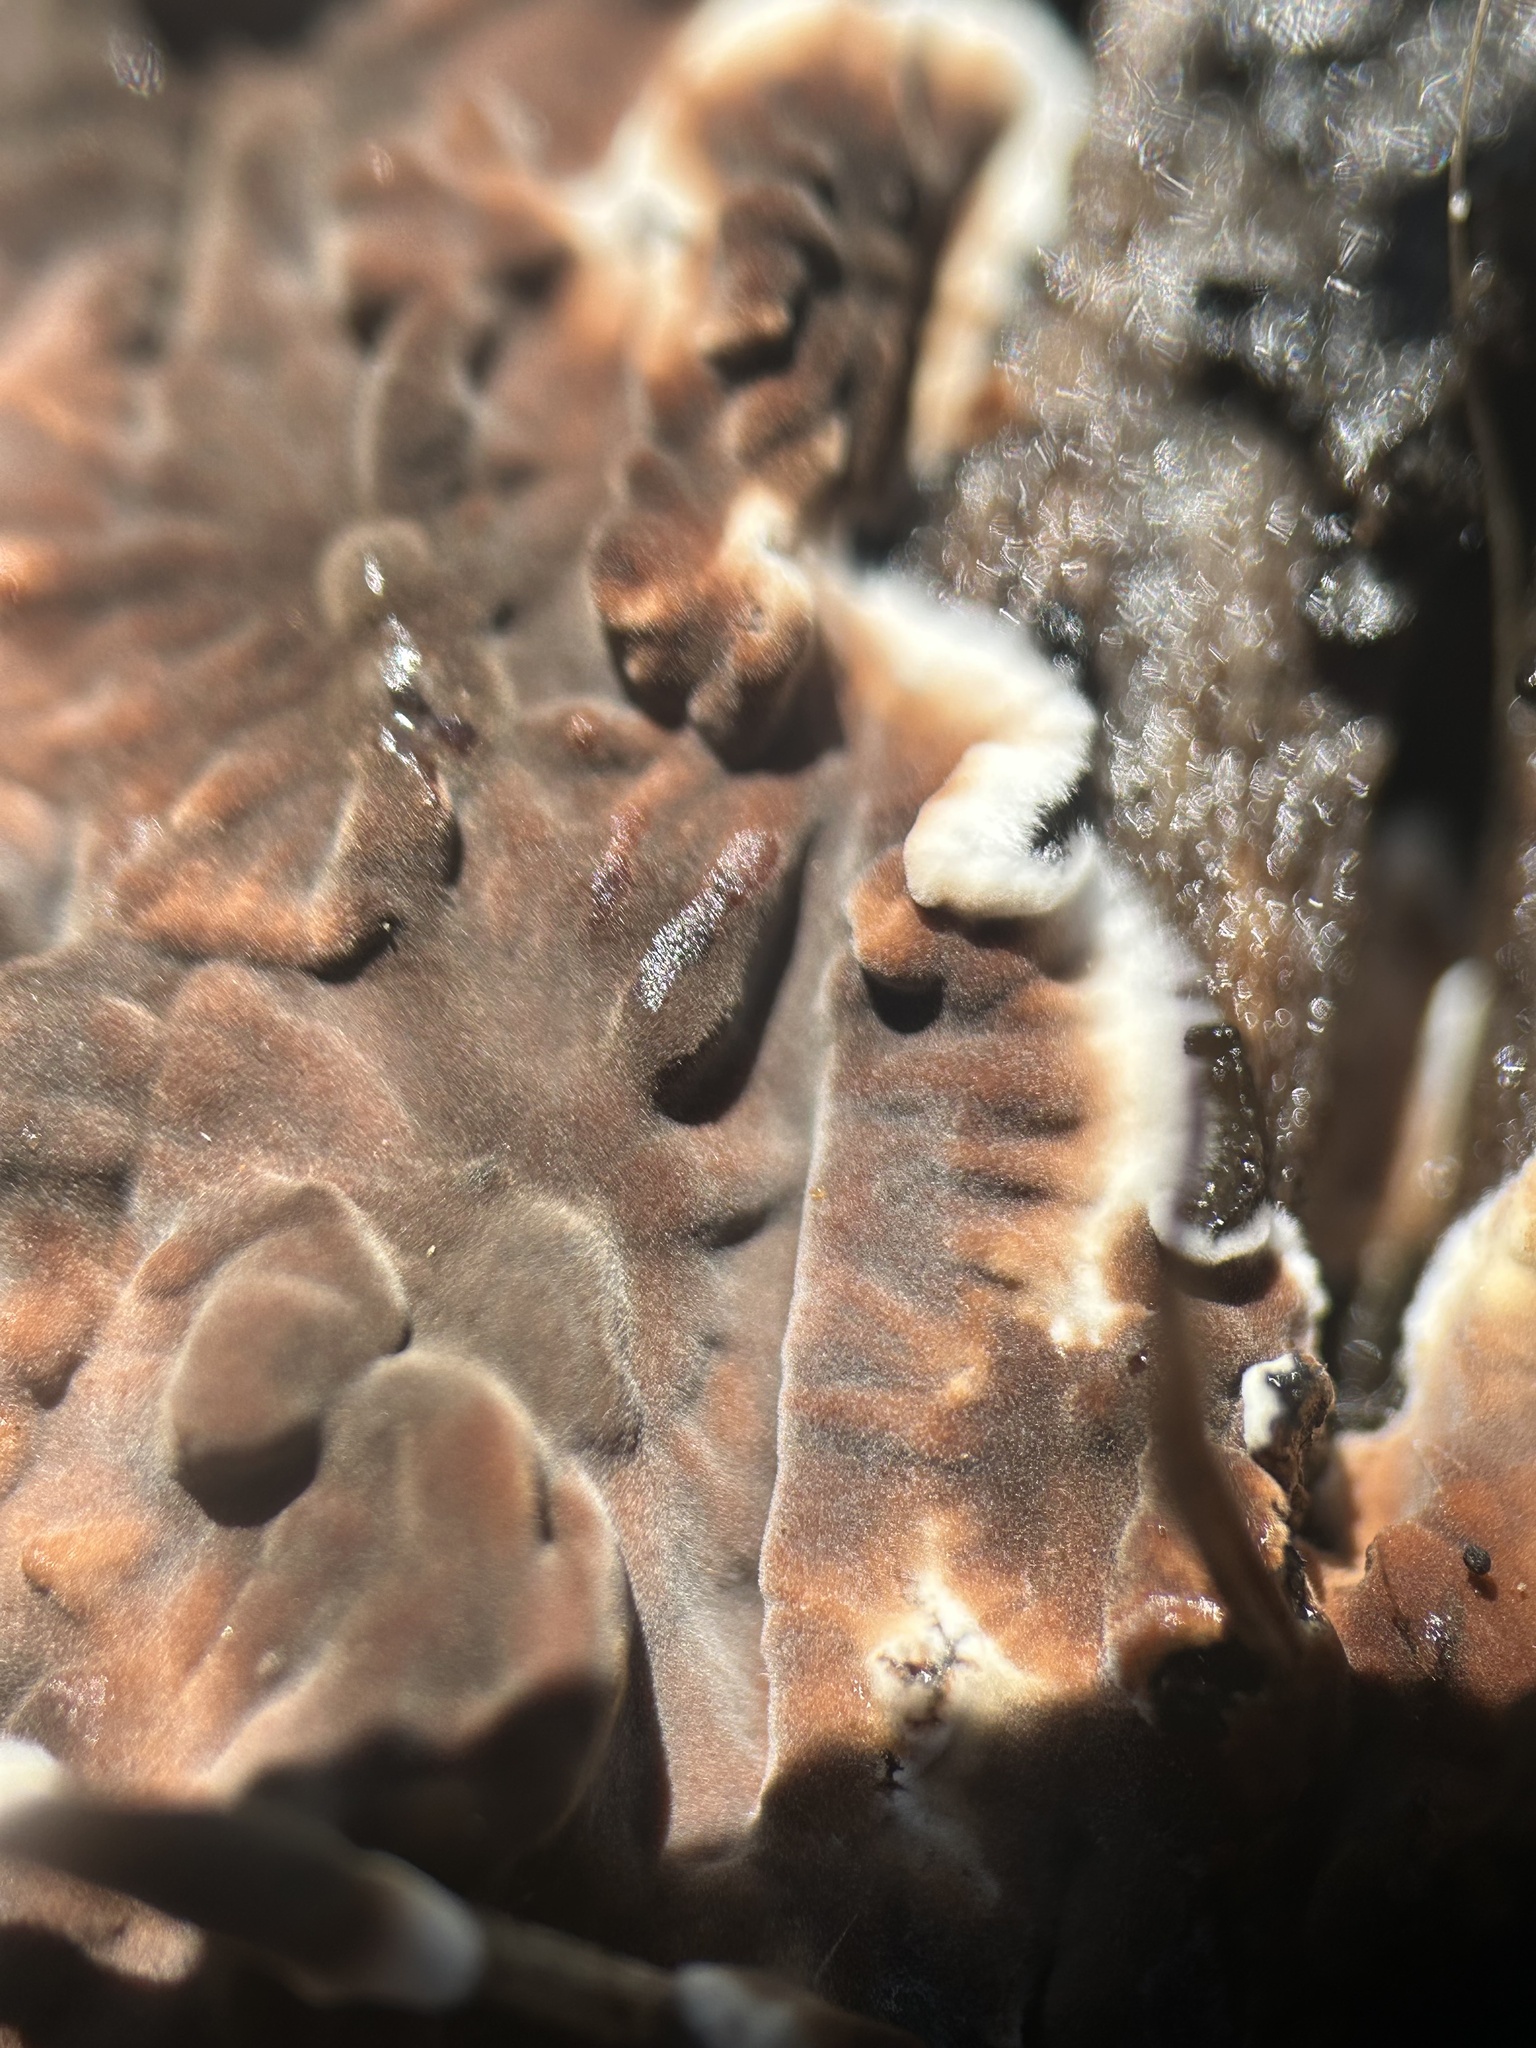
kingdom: Fungi
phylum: Basidiomycota
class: Agaricomycetes
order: Russulales
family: Peniophoraceae
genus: Peniophora
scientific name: Peniophora albobadia
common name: Giraffe spots
